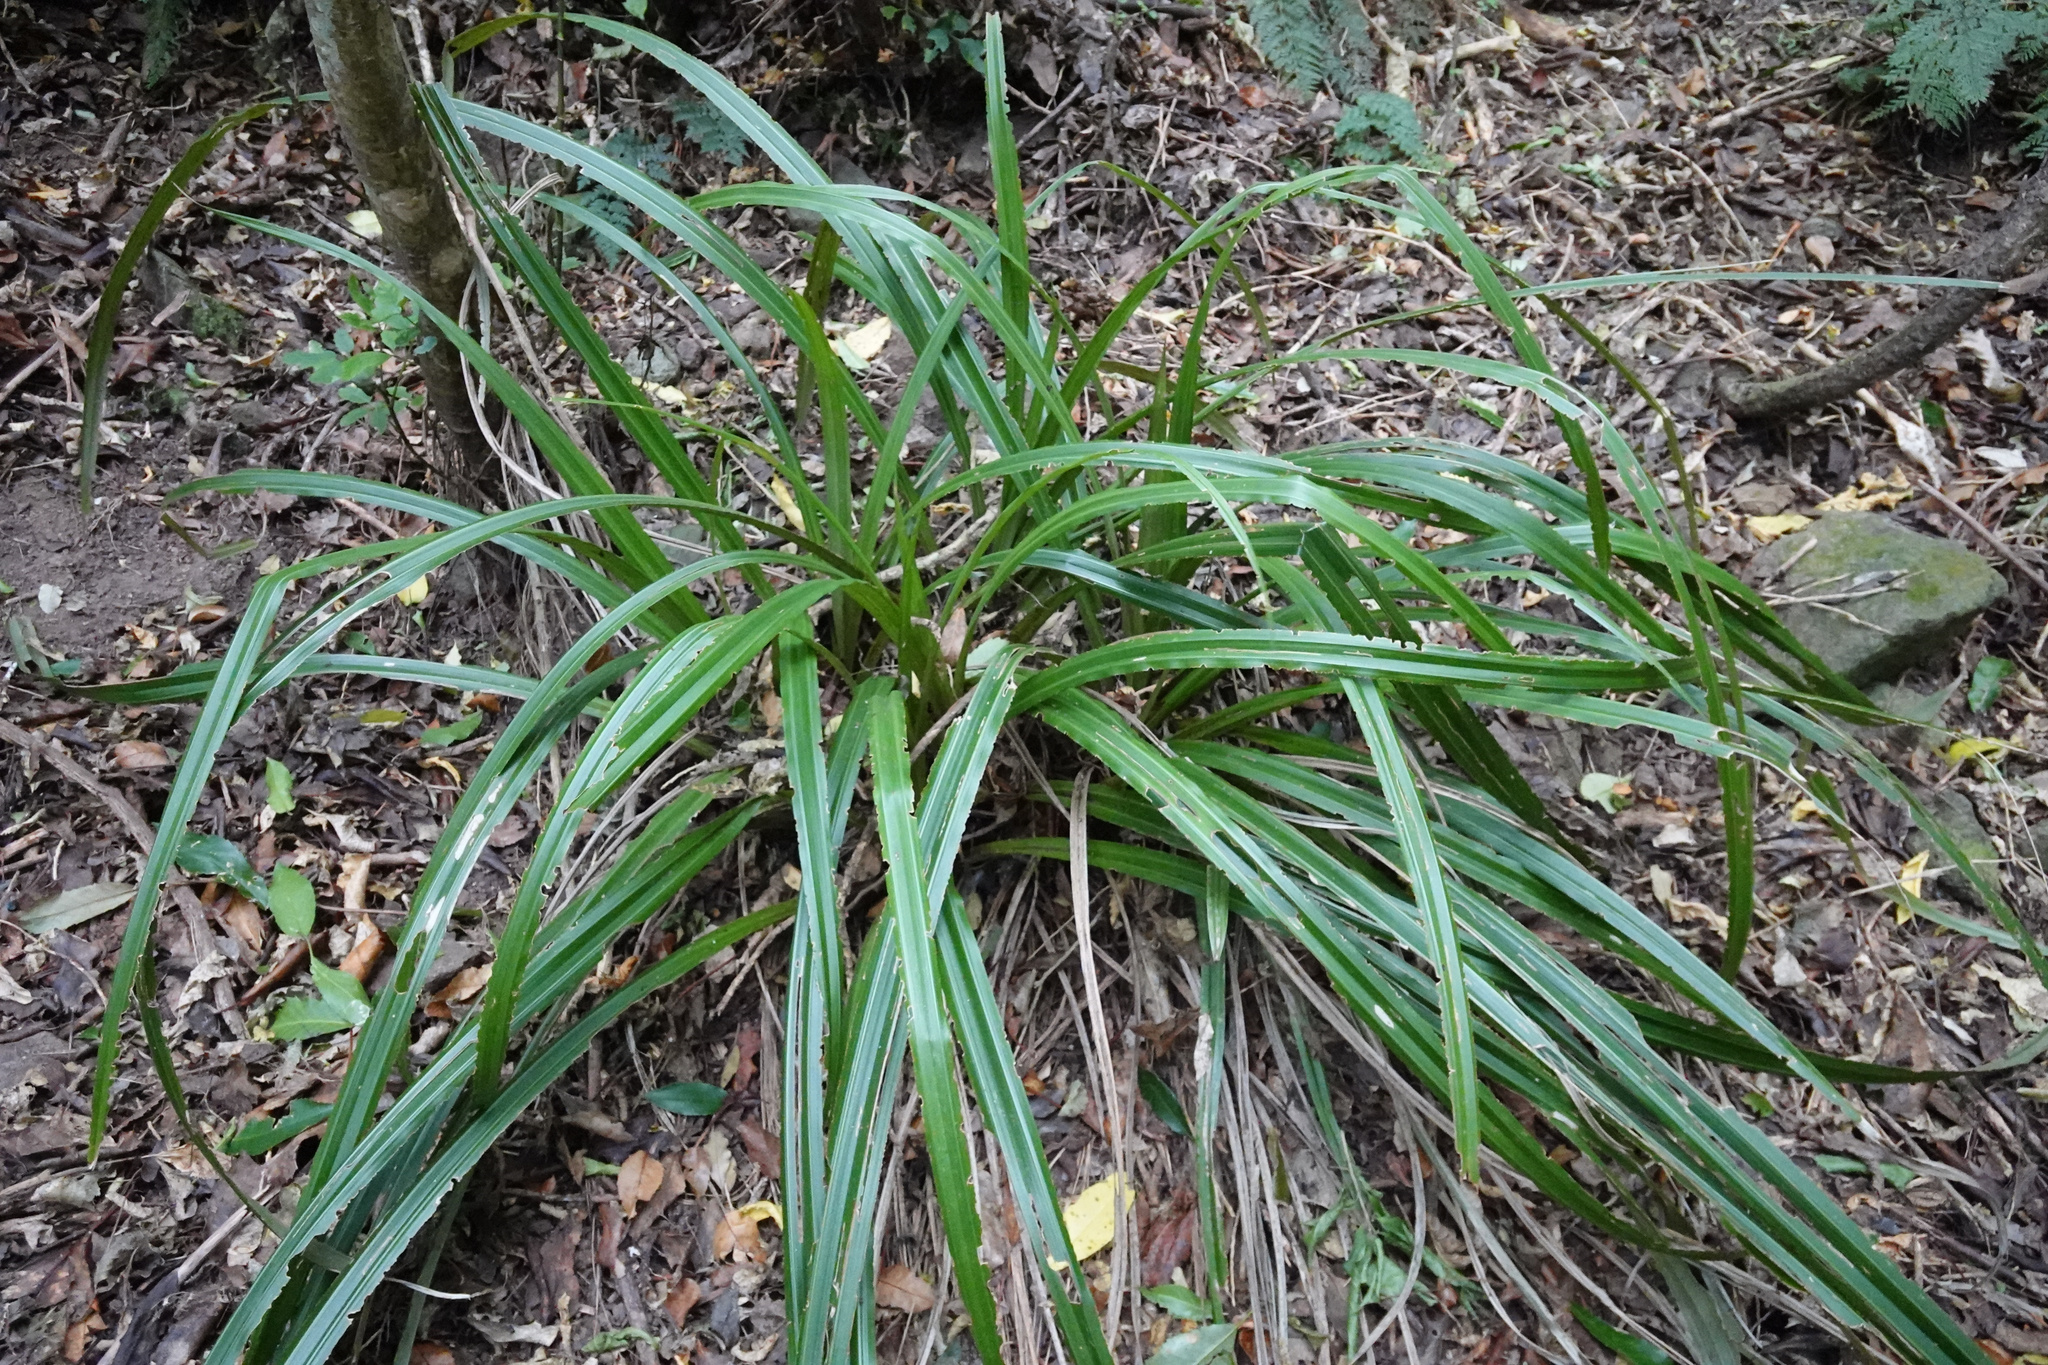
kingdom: Plantae
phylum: Tracheophyta
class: Liliopsida
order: Asparagales
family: Asteliaceae
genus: Astelia
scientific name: Astelia fragrans
